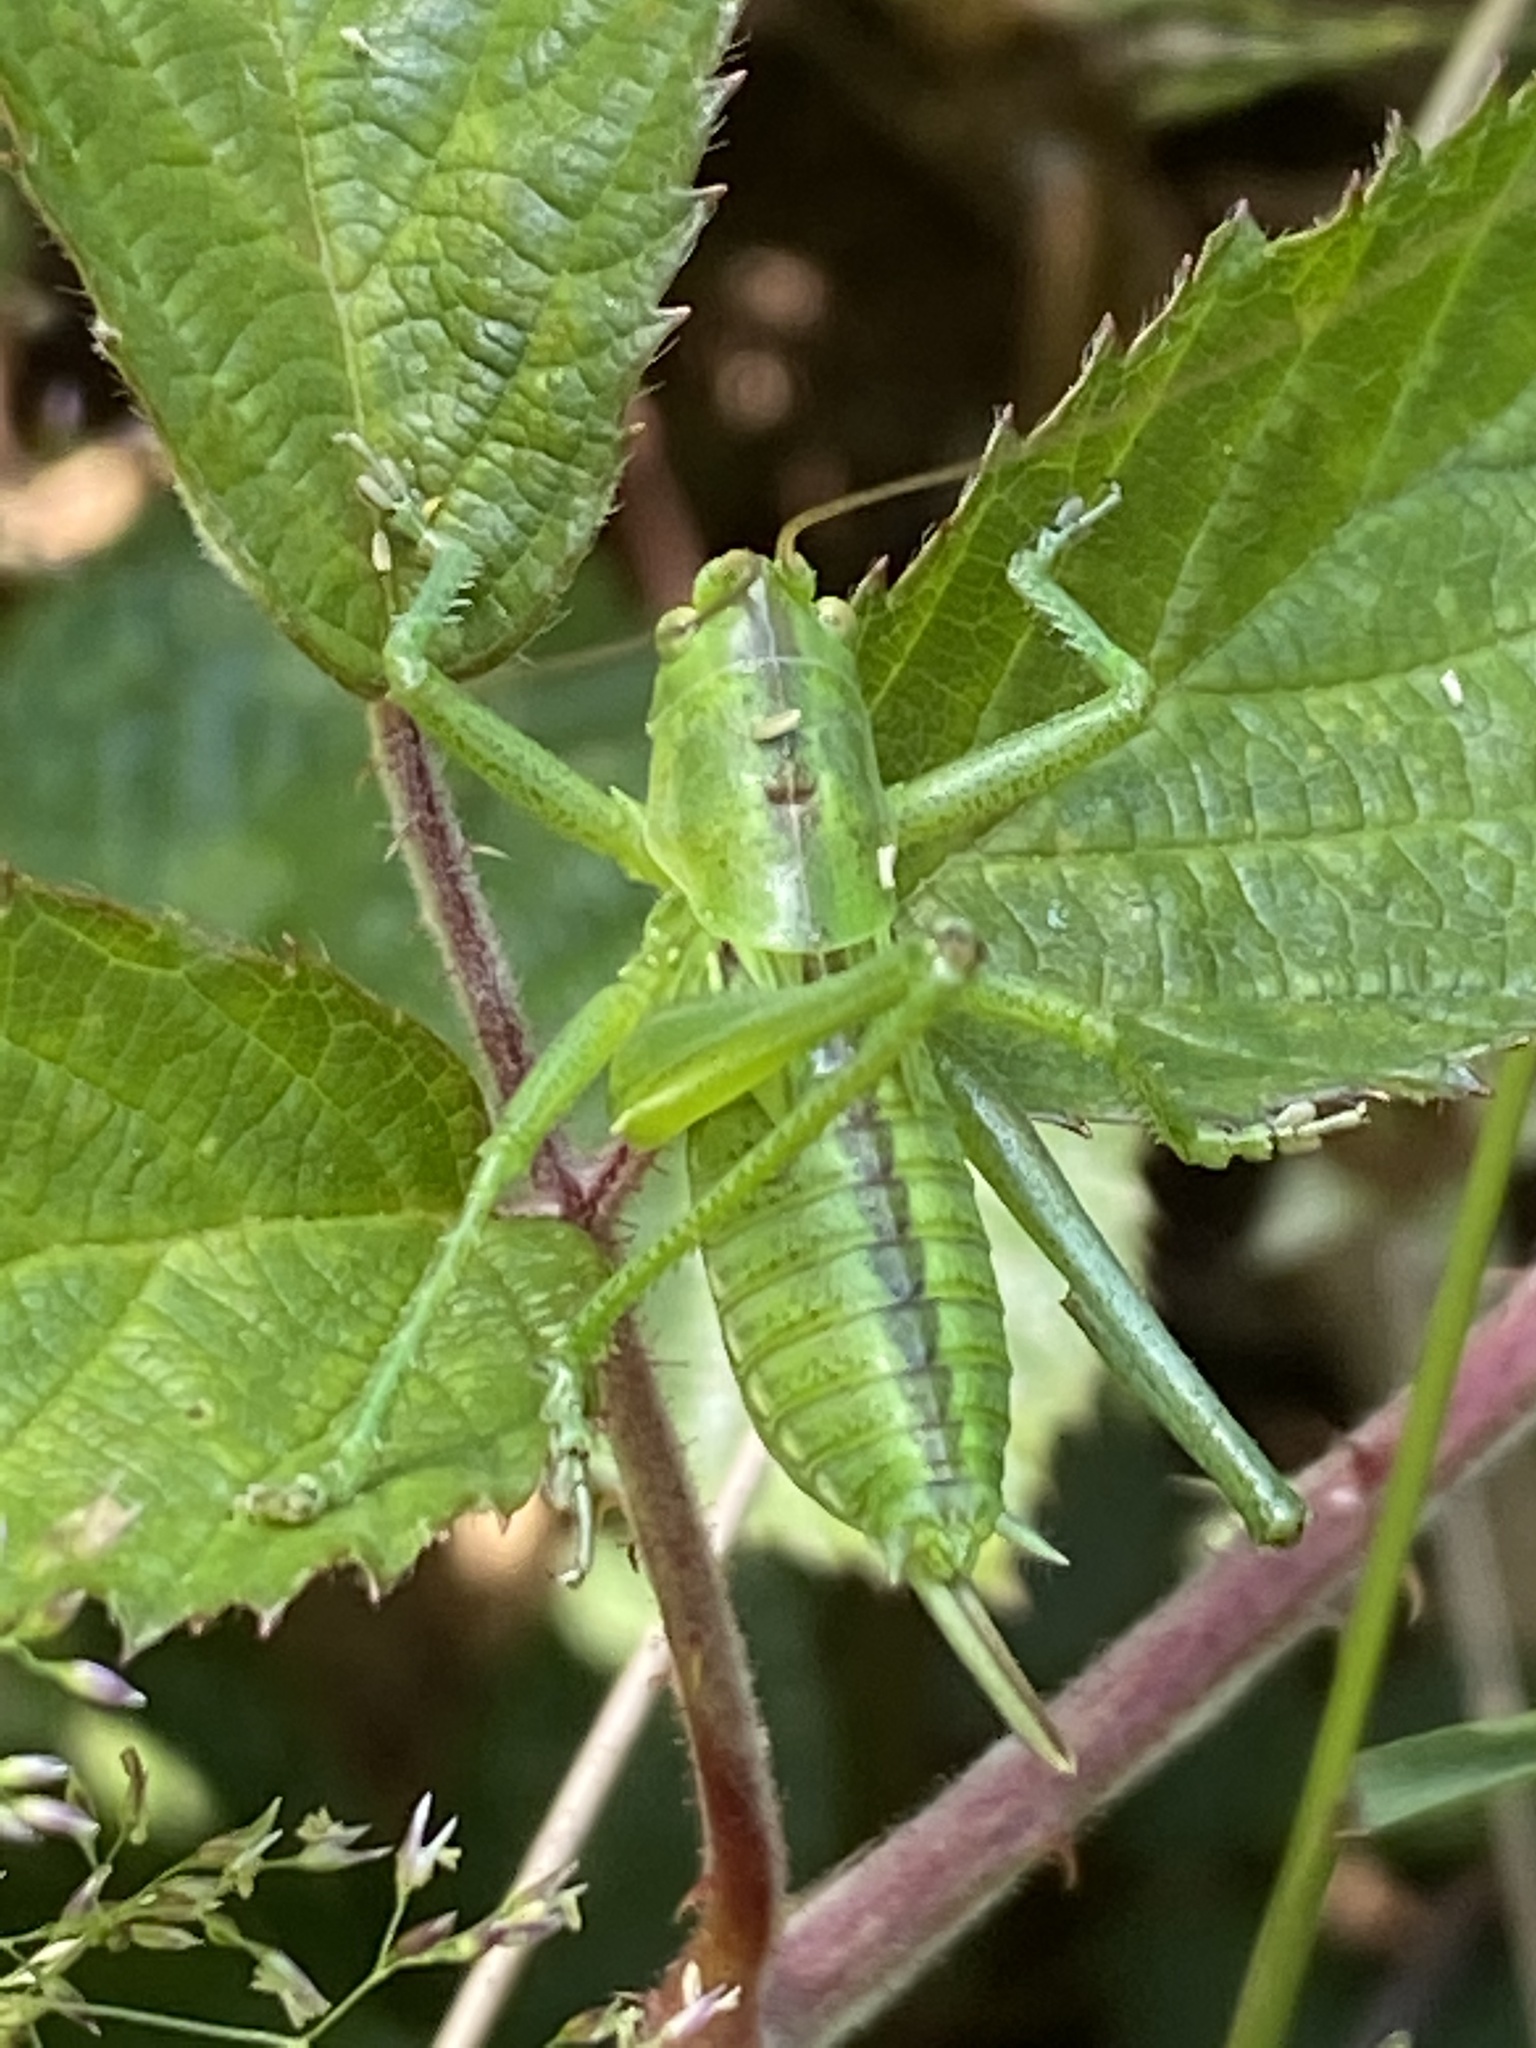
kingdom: Animalia
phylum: Arthropoda
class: Insecta
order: Orthoptera
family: Tettigoniidae
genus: Tettigonia
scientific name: Tettigonia viridissima
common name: Great green bush-cricket
